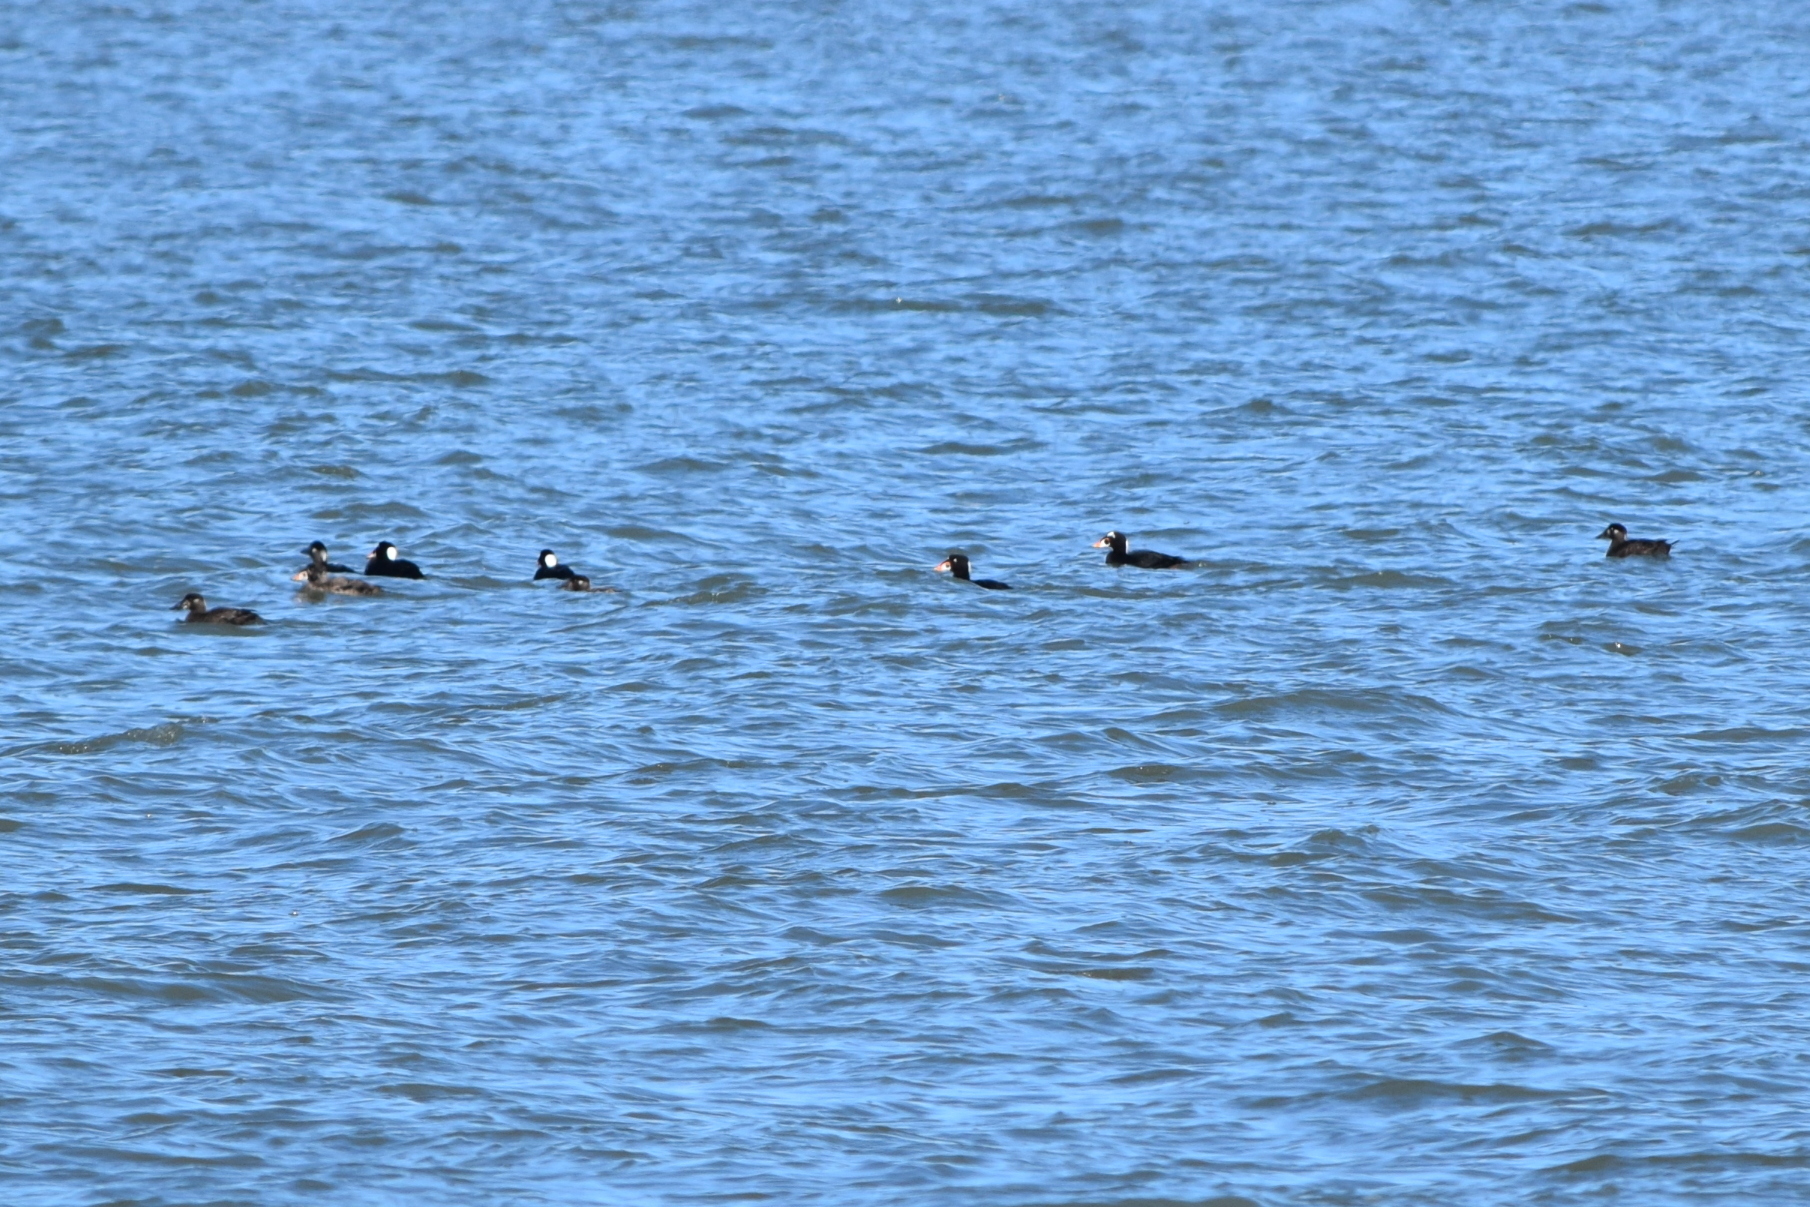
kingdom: Animalia
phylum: Chordata
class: Aves
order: Anseriformes
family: Anatidae
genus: Melanitta
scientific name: Melanitta perspicillata
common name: Surf scoter
